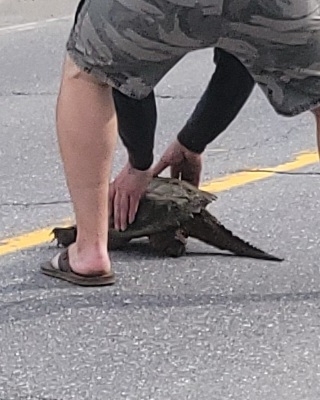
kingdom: Animalia
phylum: Chordata
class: Testudines
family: Chelydridae
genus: Chelydra
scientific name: Chelydra serpentina
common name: Common snapping turtle
